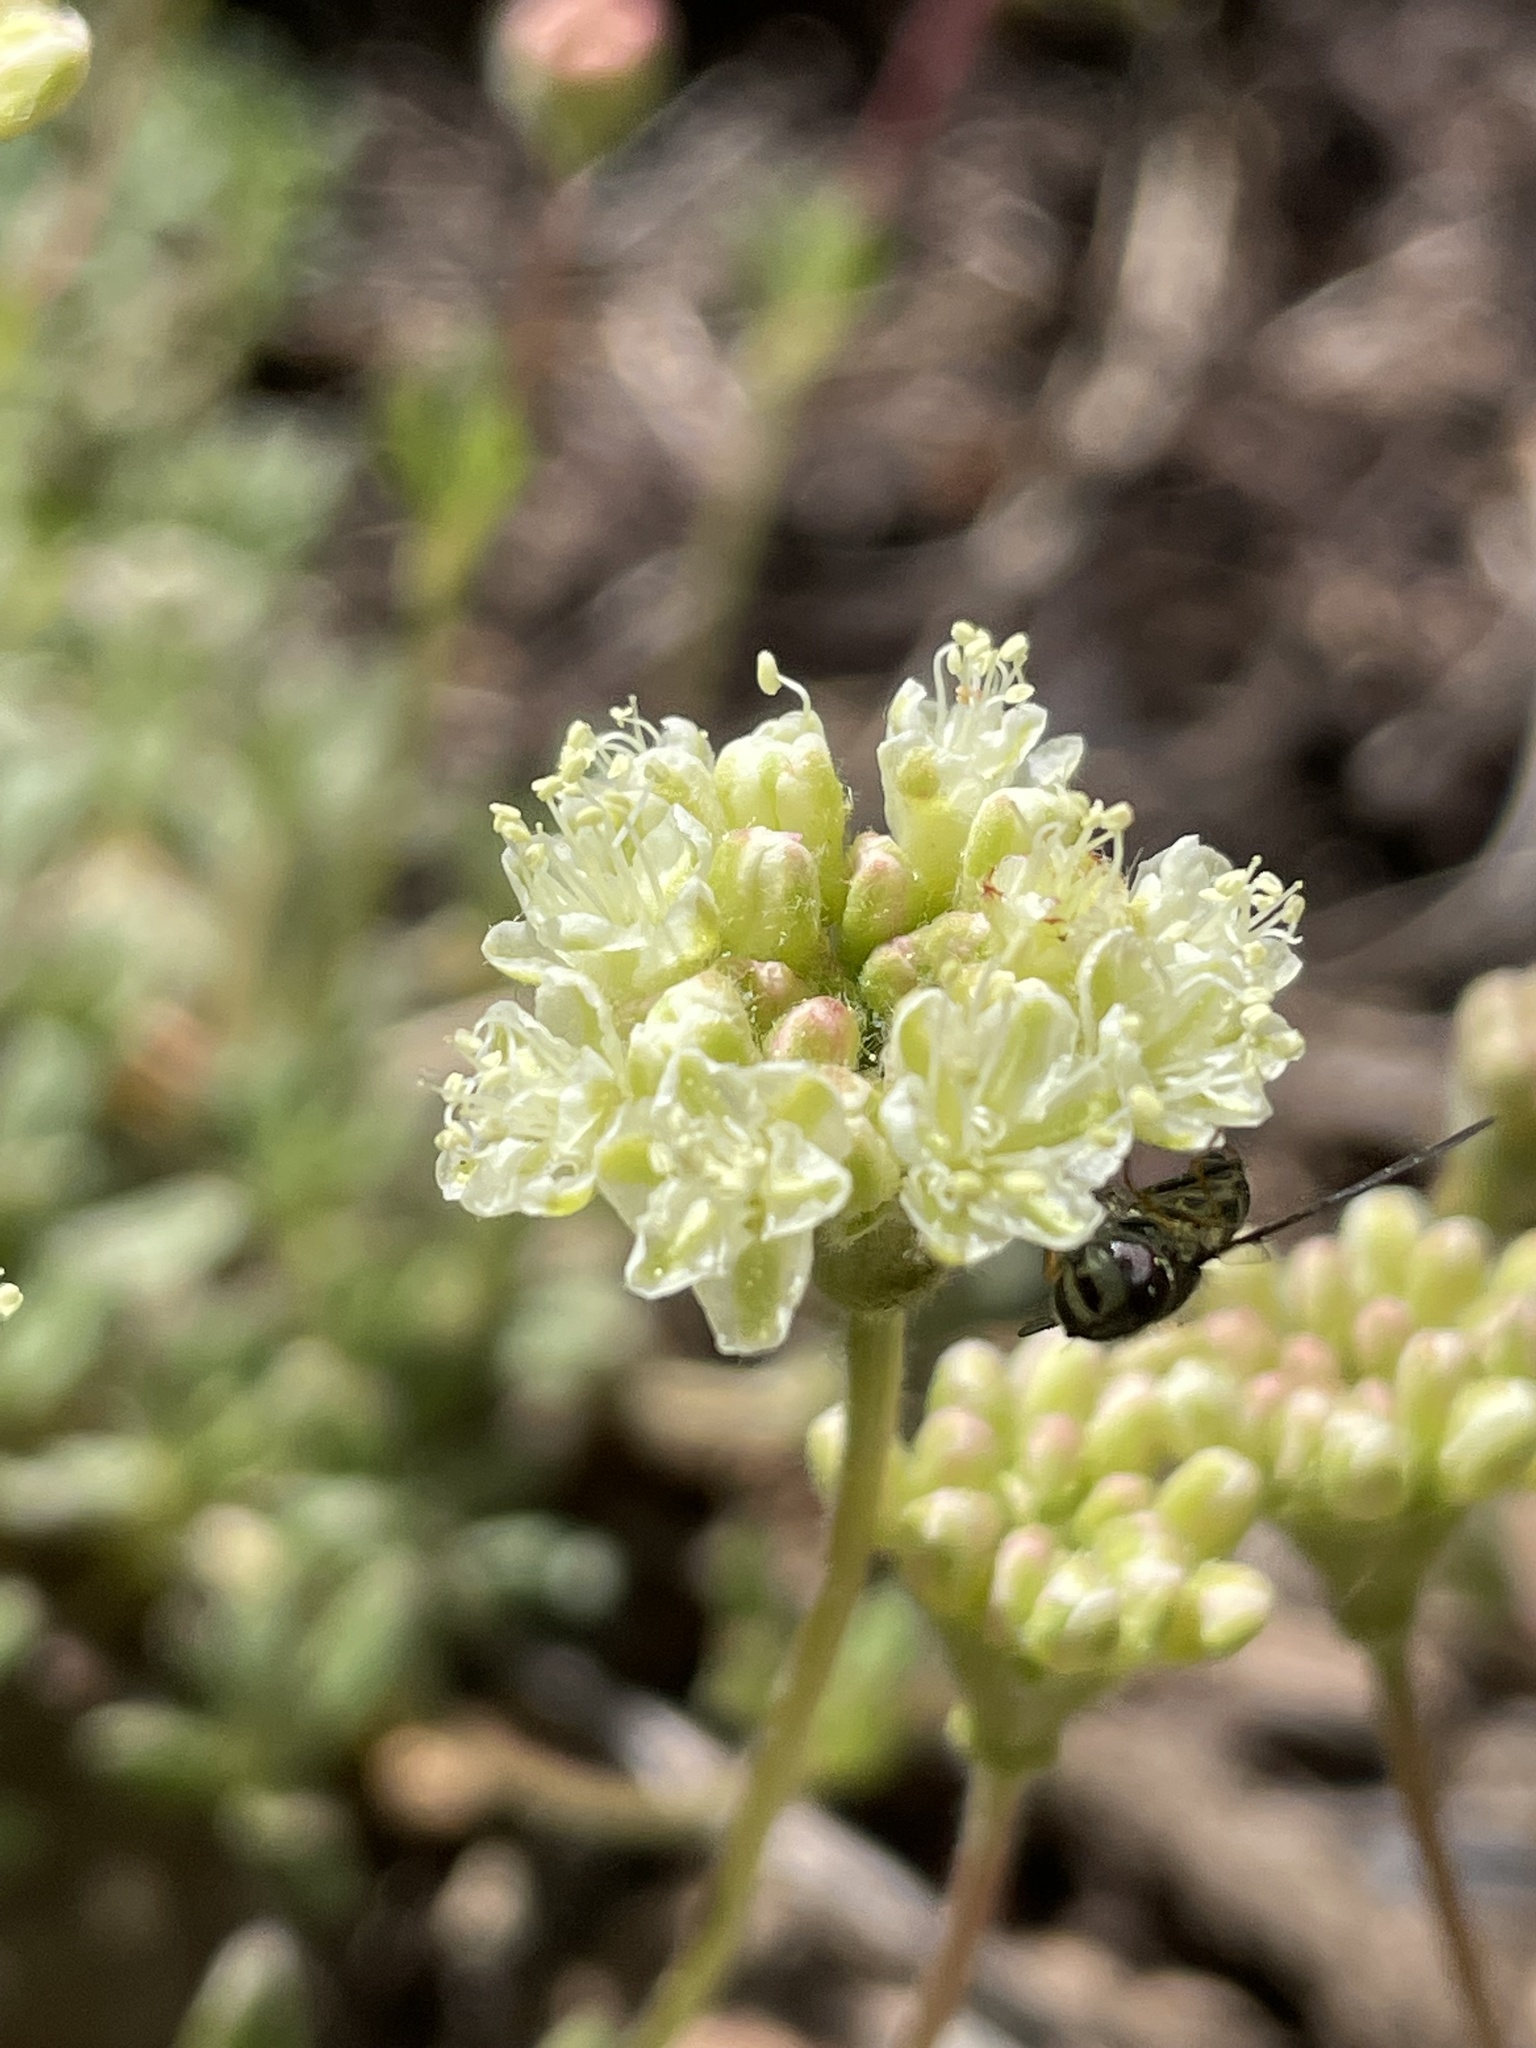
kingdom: Plantae
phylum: Tracheophyta
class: Magnoliopsida
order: Caryophyllales
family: Polygonaceae
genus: Eriogonum
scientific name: Eriogonum twisselmanii
